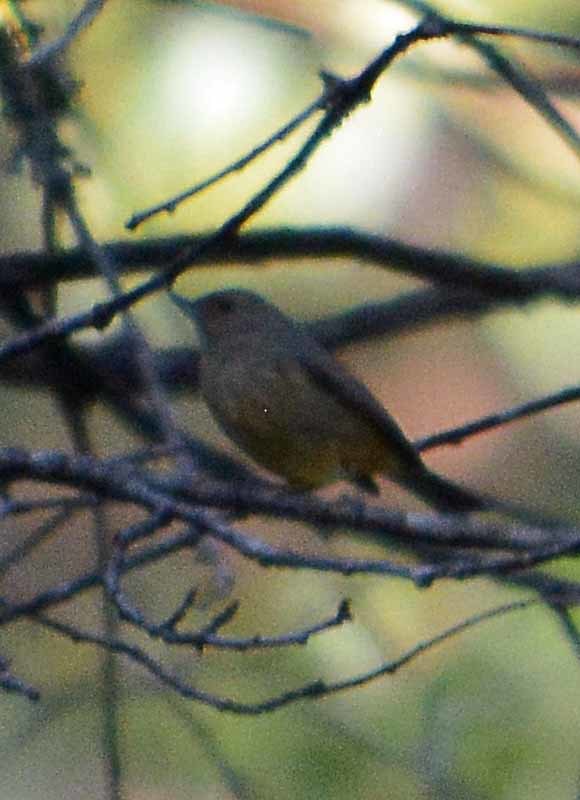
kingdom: Animalia
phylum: Chordata
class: Aves
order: Passeriformes
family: Thraupidae
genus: Diglossa
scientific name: Diglossa baritula
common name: Cinnamon-bellied flowerpiercer
